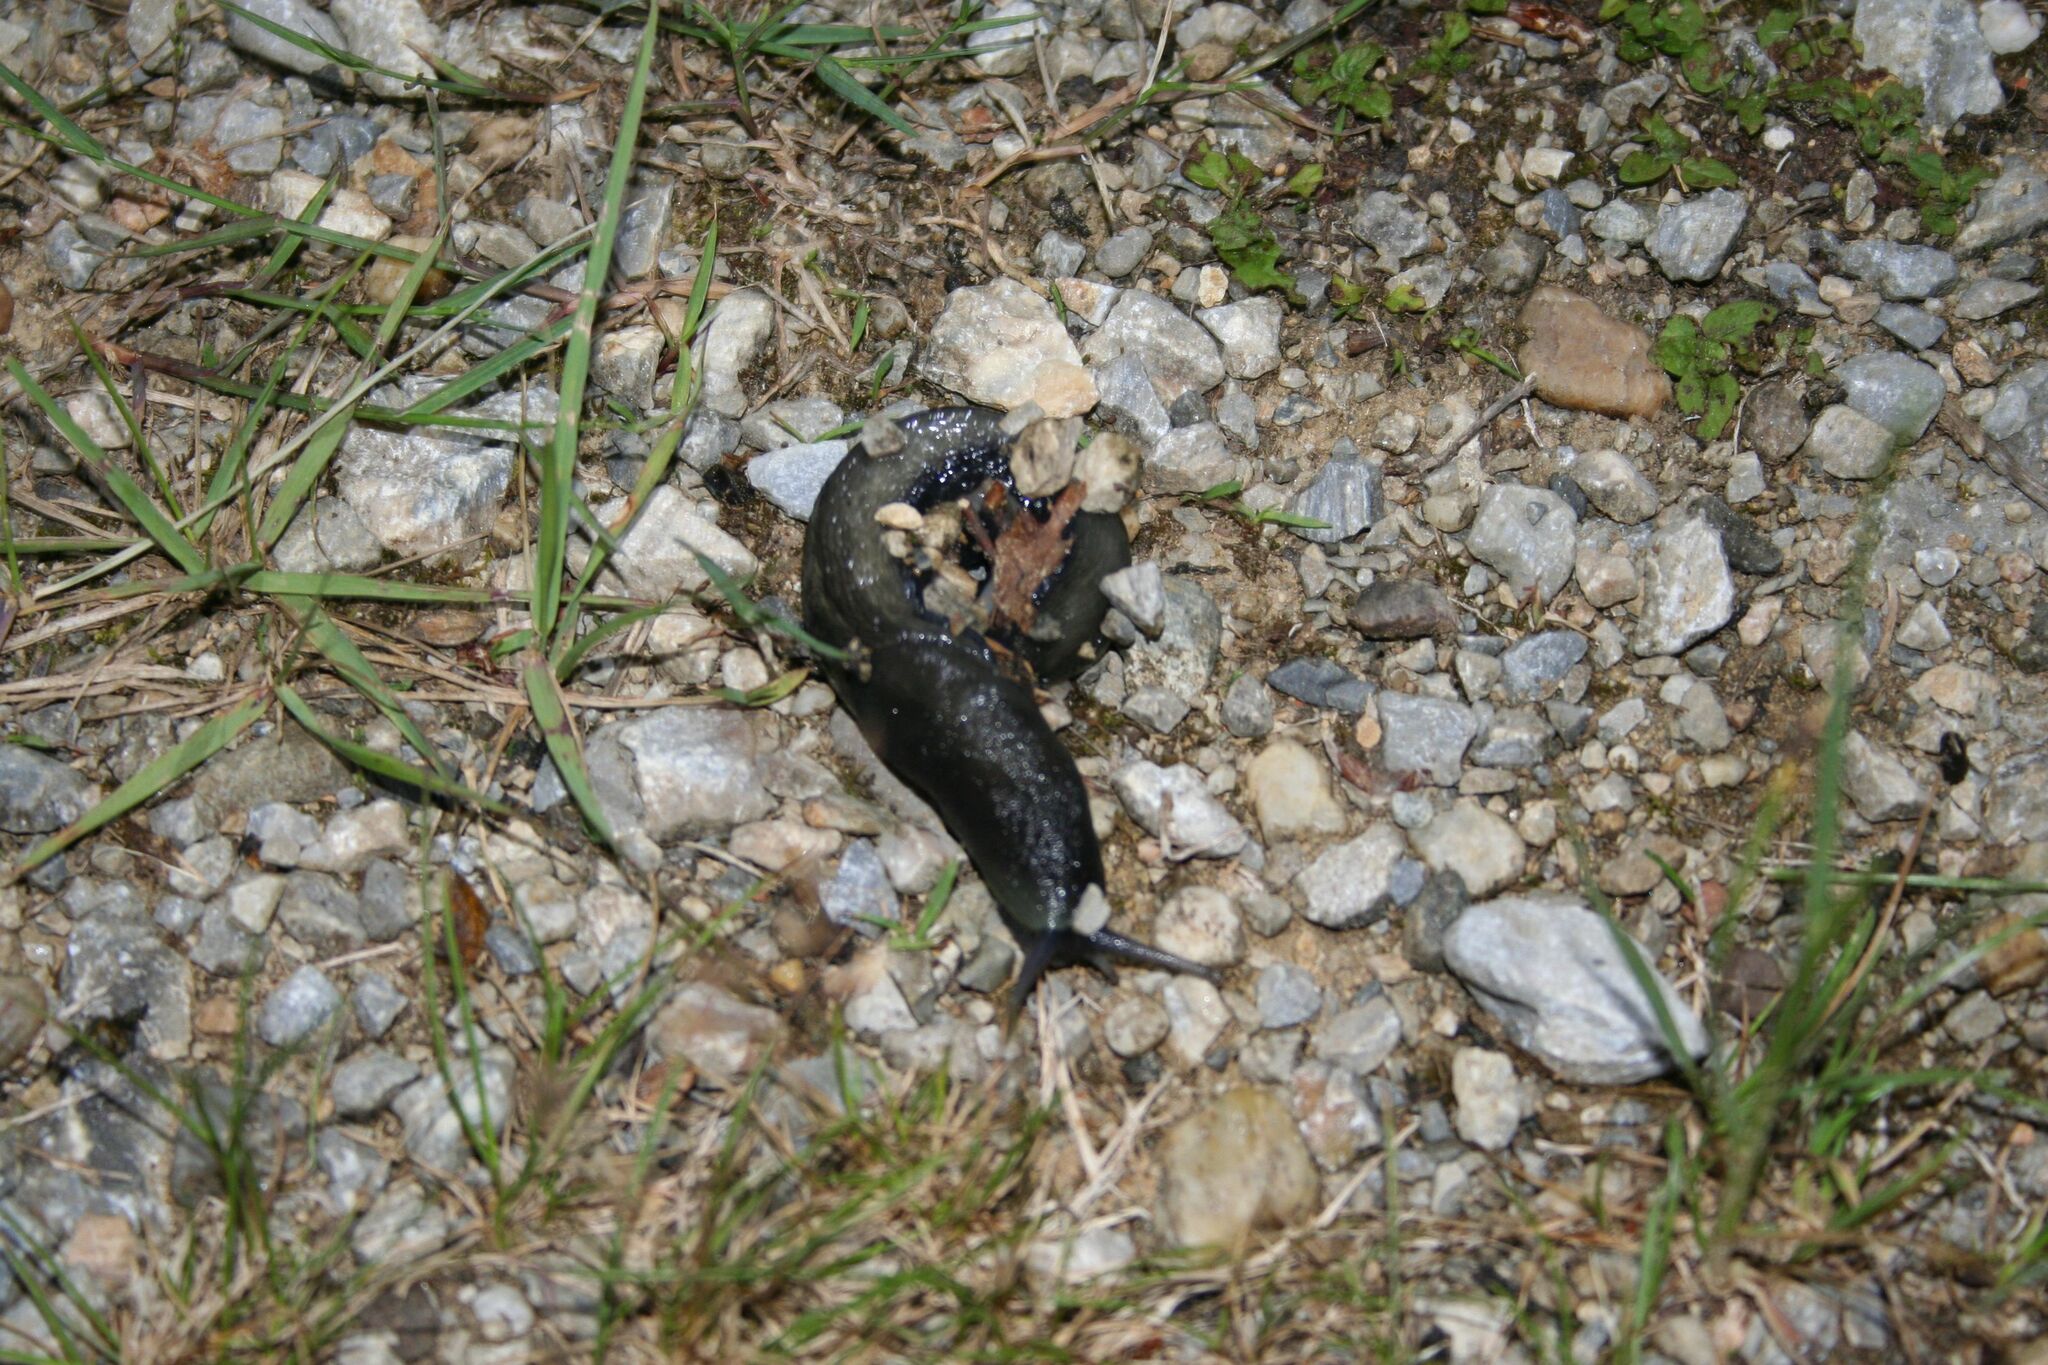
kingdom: Animalia
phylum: Mollusca
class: Gastropoda
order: Stylommatophora
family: Limacidae
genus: Limax
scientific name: Limax cinereoniger
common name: Ash-black slug
